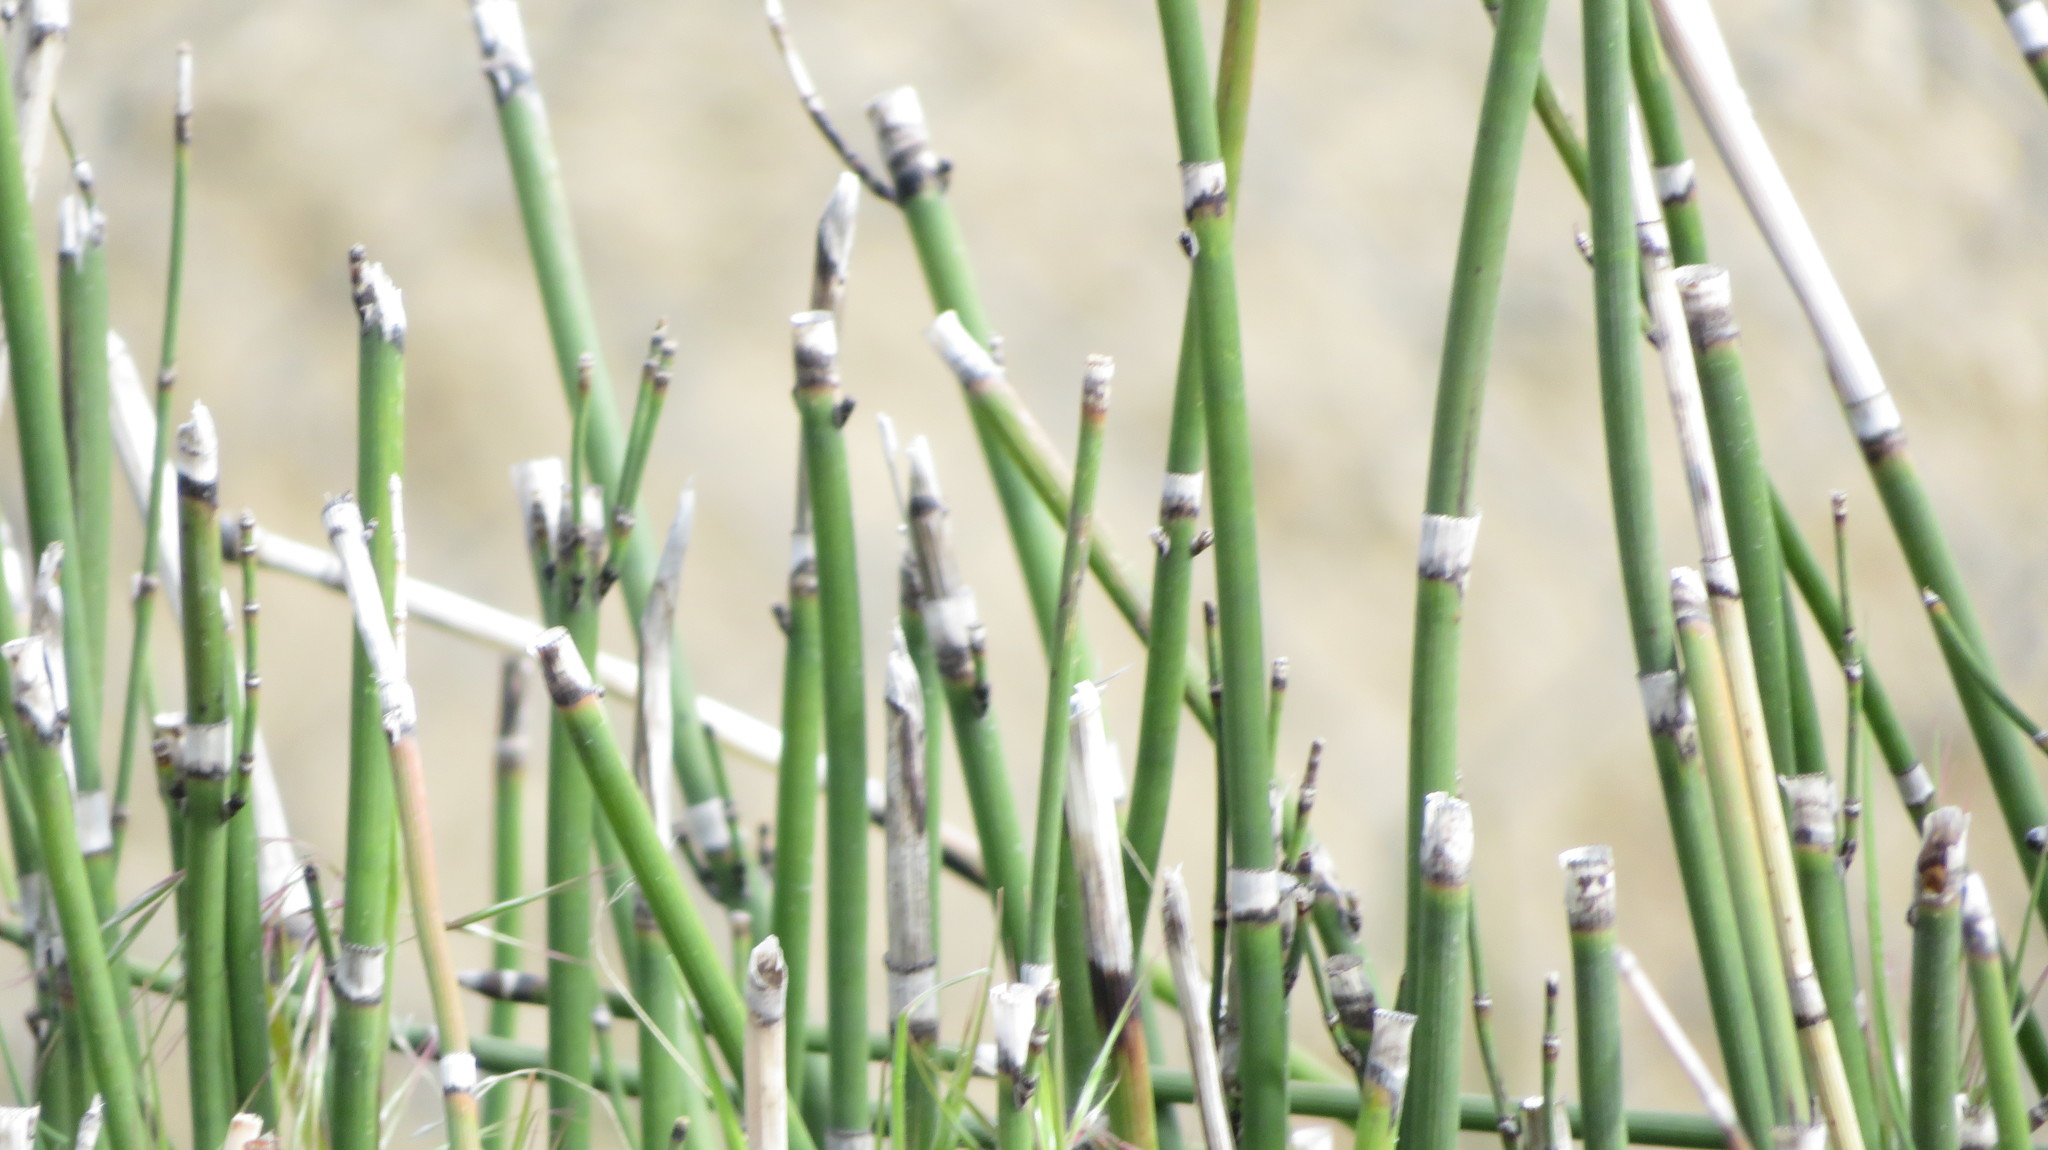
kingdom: Plantae
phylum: Tracheophyta
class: Polypodiopsida
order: Equisetales
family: Equisetaceae
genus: Equisetum
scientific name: Equisetum hyemale
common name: Rough horsetail
